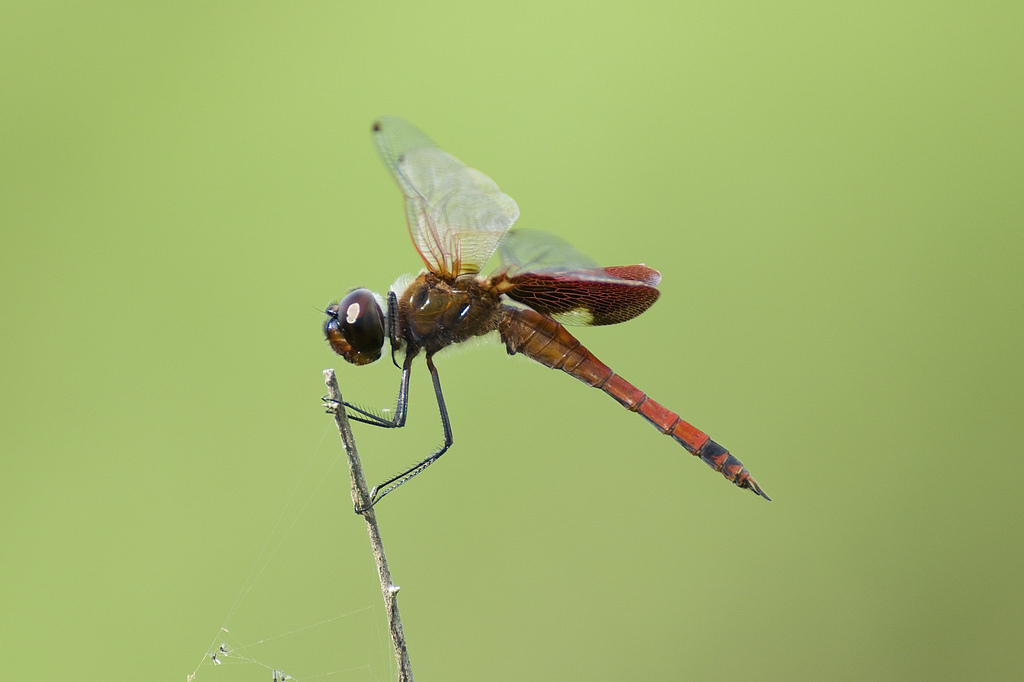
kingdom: Animalia
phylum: Arthropoda
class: Insecta
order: Odonata
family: Libellulidae
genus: Tramea
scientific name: Tramea carolina
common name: Carolina saddlebags
